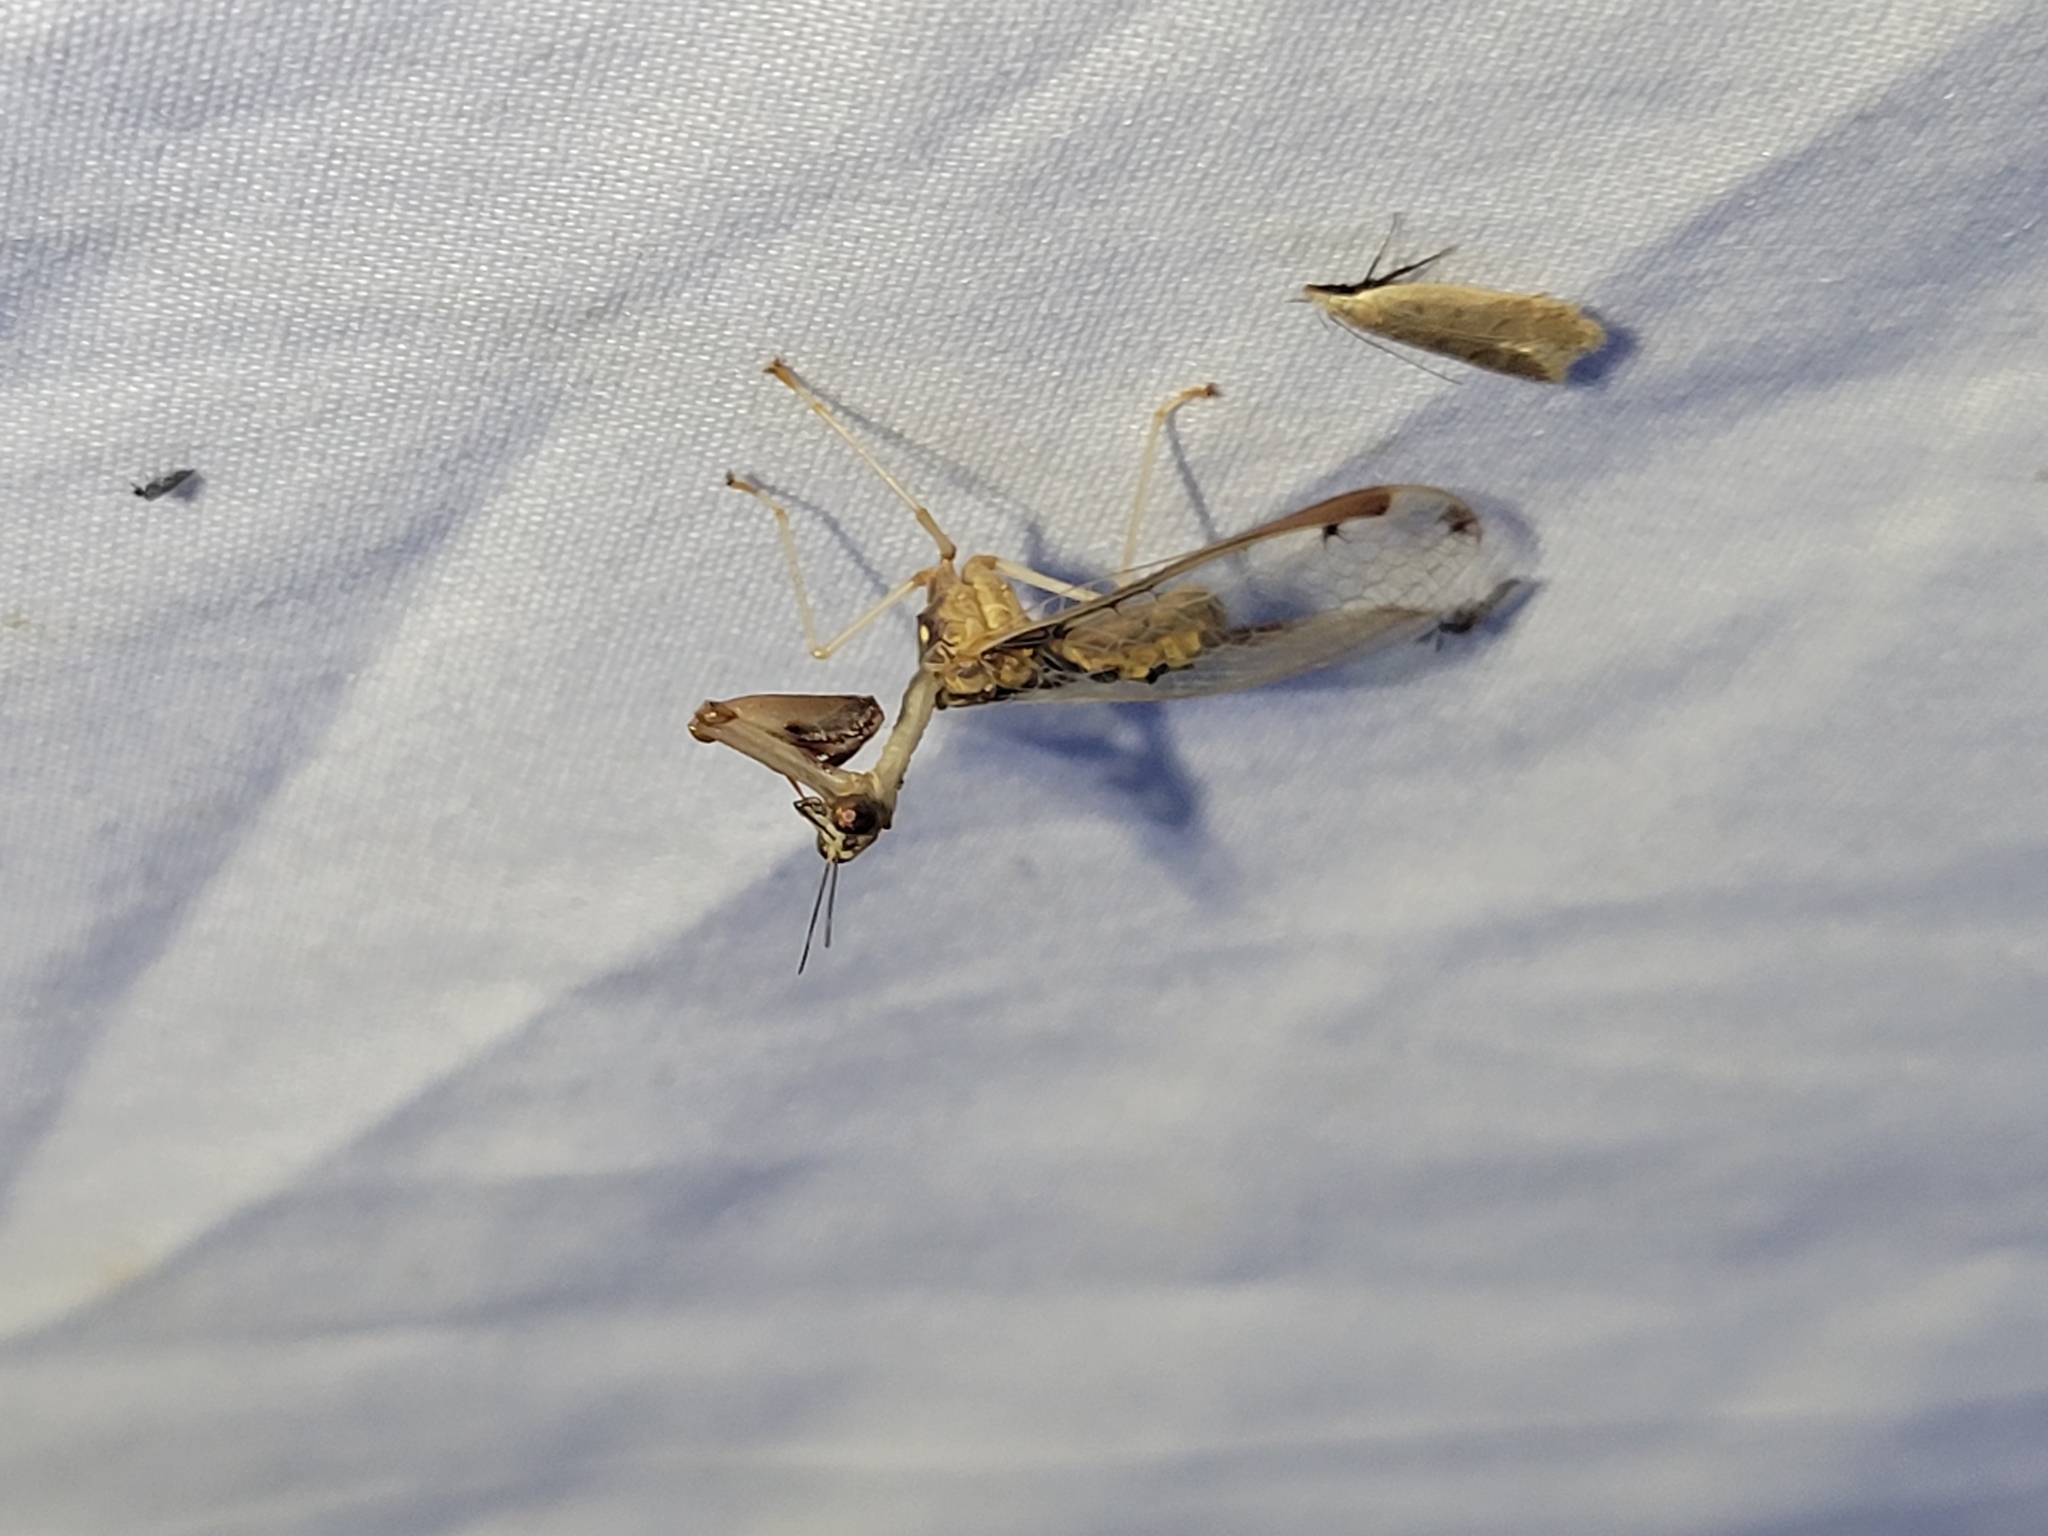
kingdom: Animalia
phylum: Arthropoda
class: Insecta
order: Neuroptera
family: Mantispidae
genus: Dicromantispa
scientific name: Dicromantispa interrupta
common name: Four-spotted mantidfly
